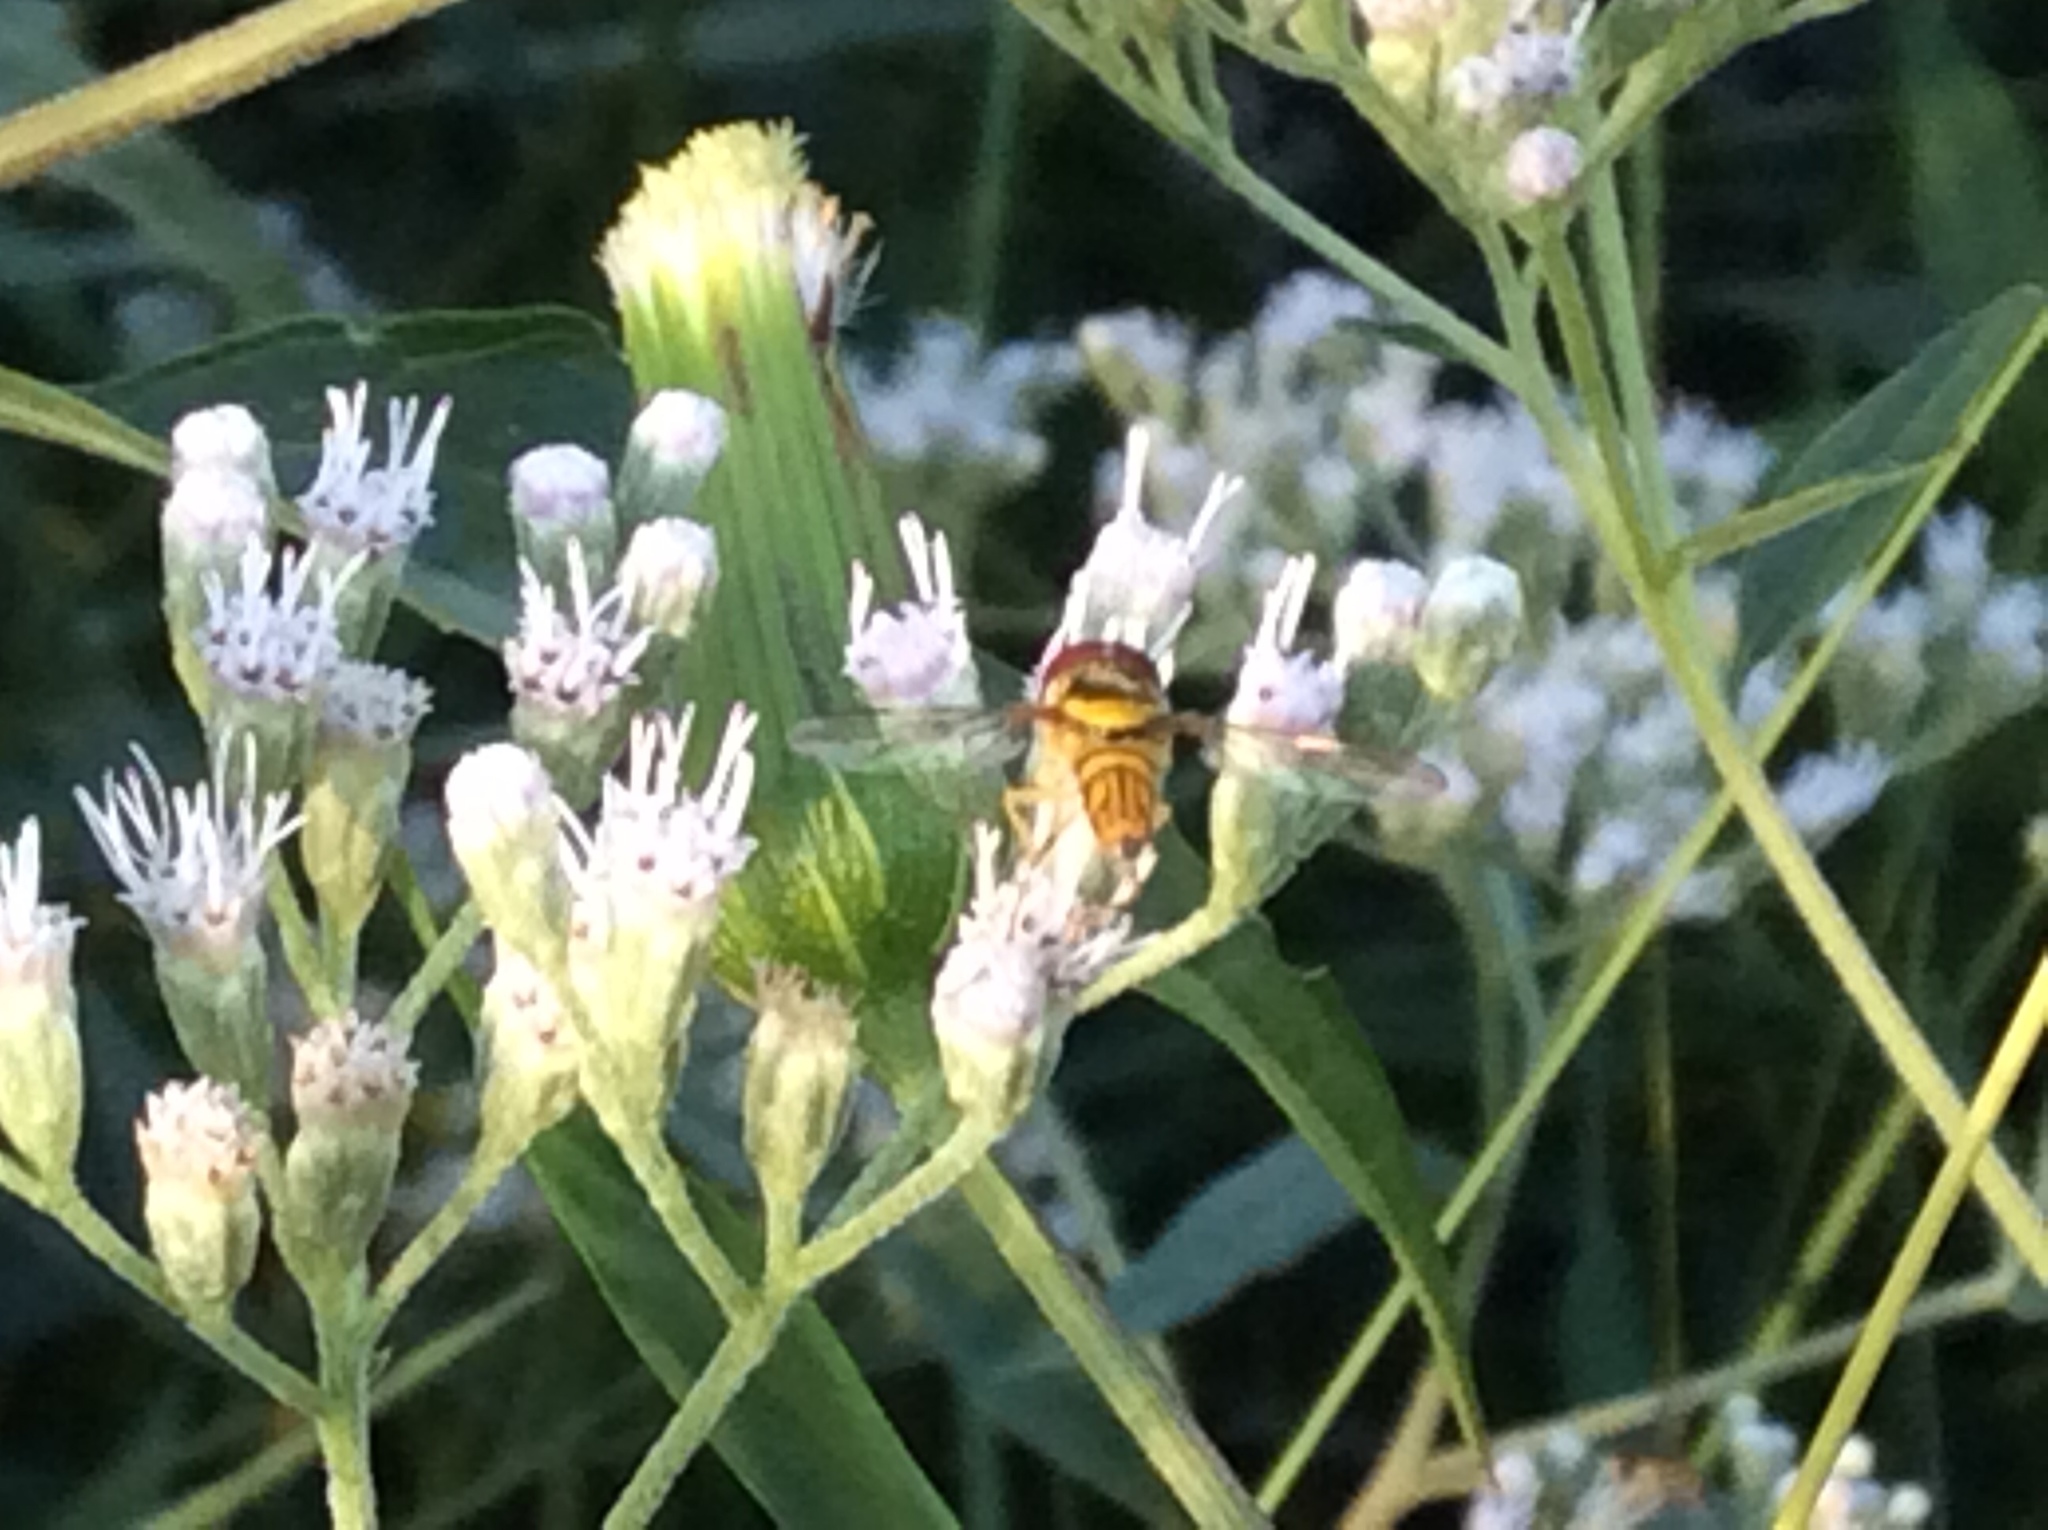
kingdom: Animalia
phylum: Arthropoda
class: Insecta
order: Diptera
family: Syrphidae
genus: Allograpta
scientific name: Allograpta obliqua
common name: Common oblique syrphid
